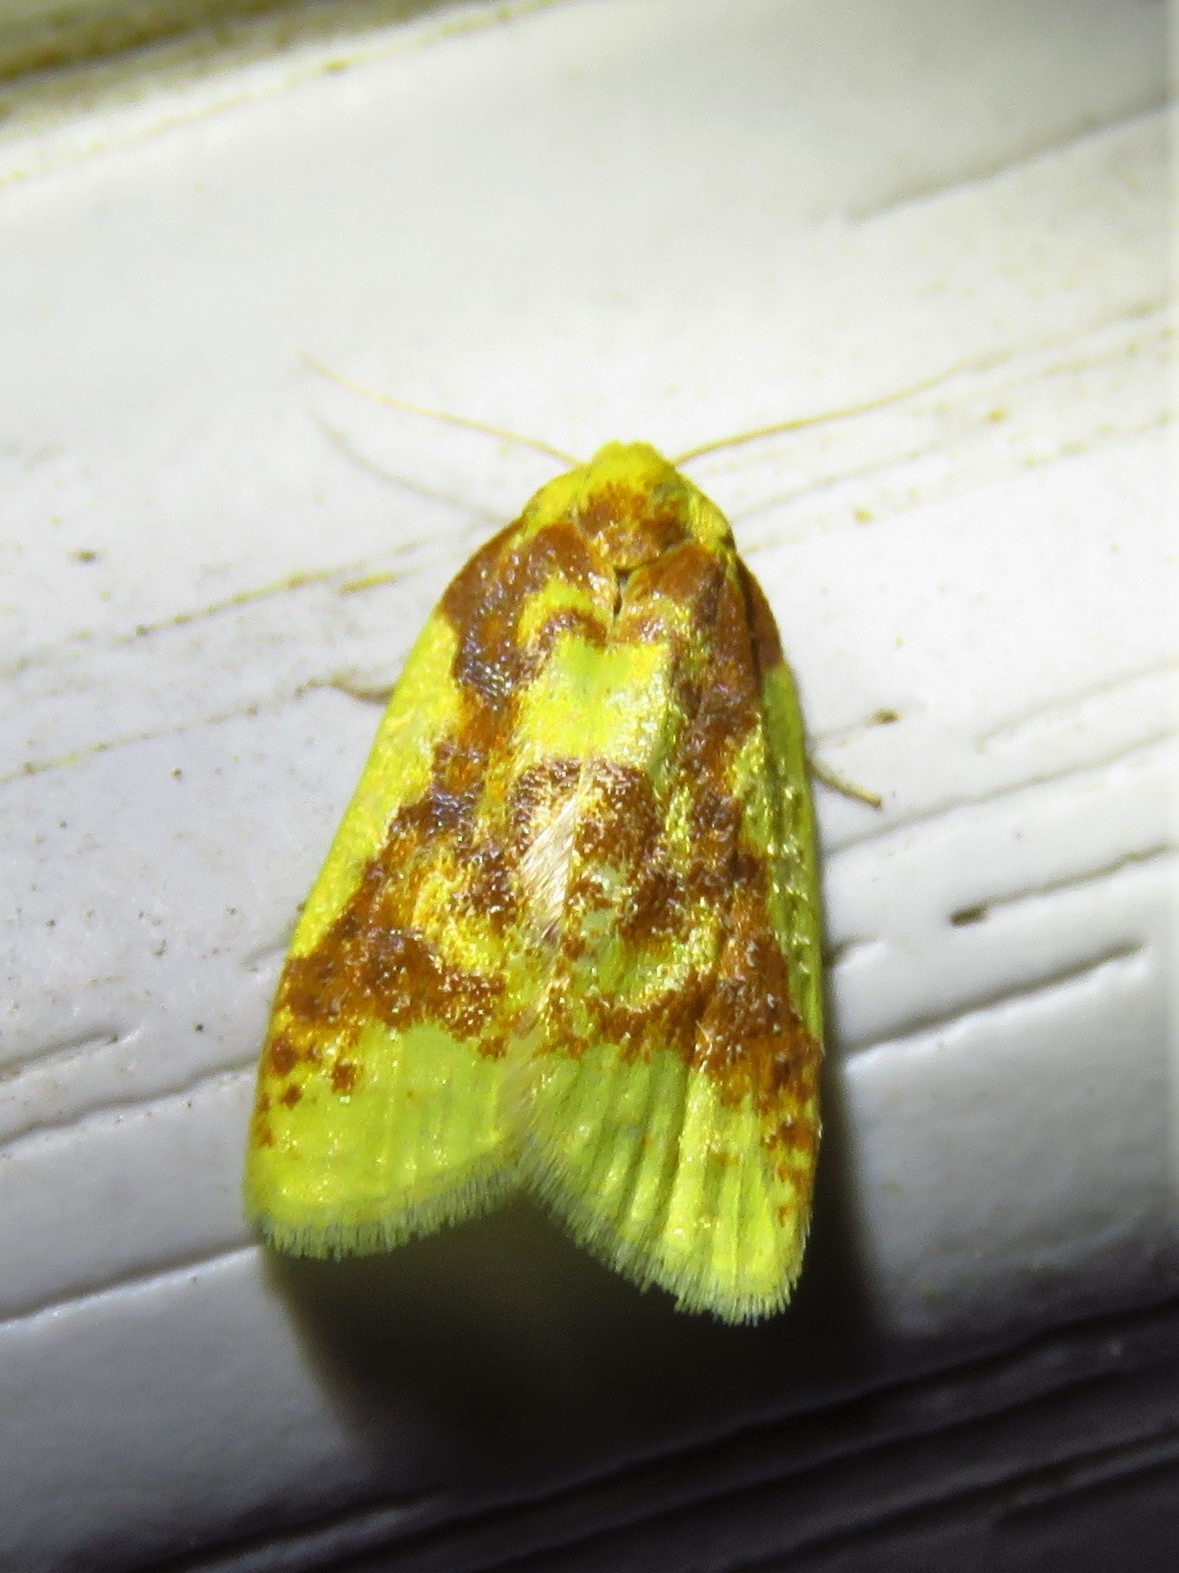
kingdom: Animalia
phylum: Arthropoda
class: Insecta
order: Lepidoptera
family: Tortricidae
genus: Sparganothis
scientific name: Sparganothis pulcherrimana
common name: Beautiful sparganothis
